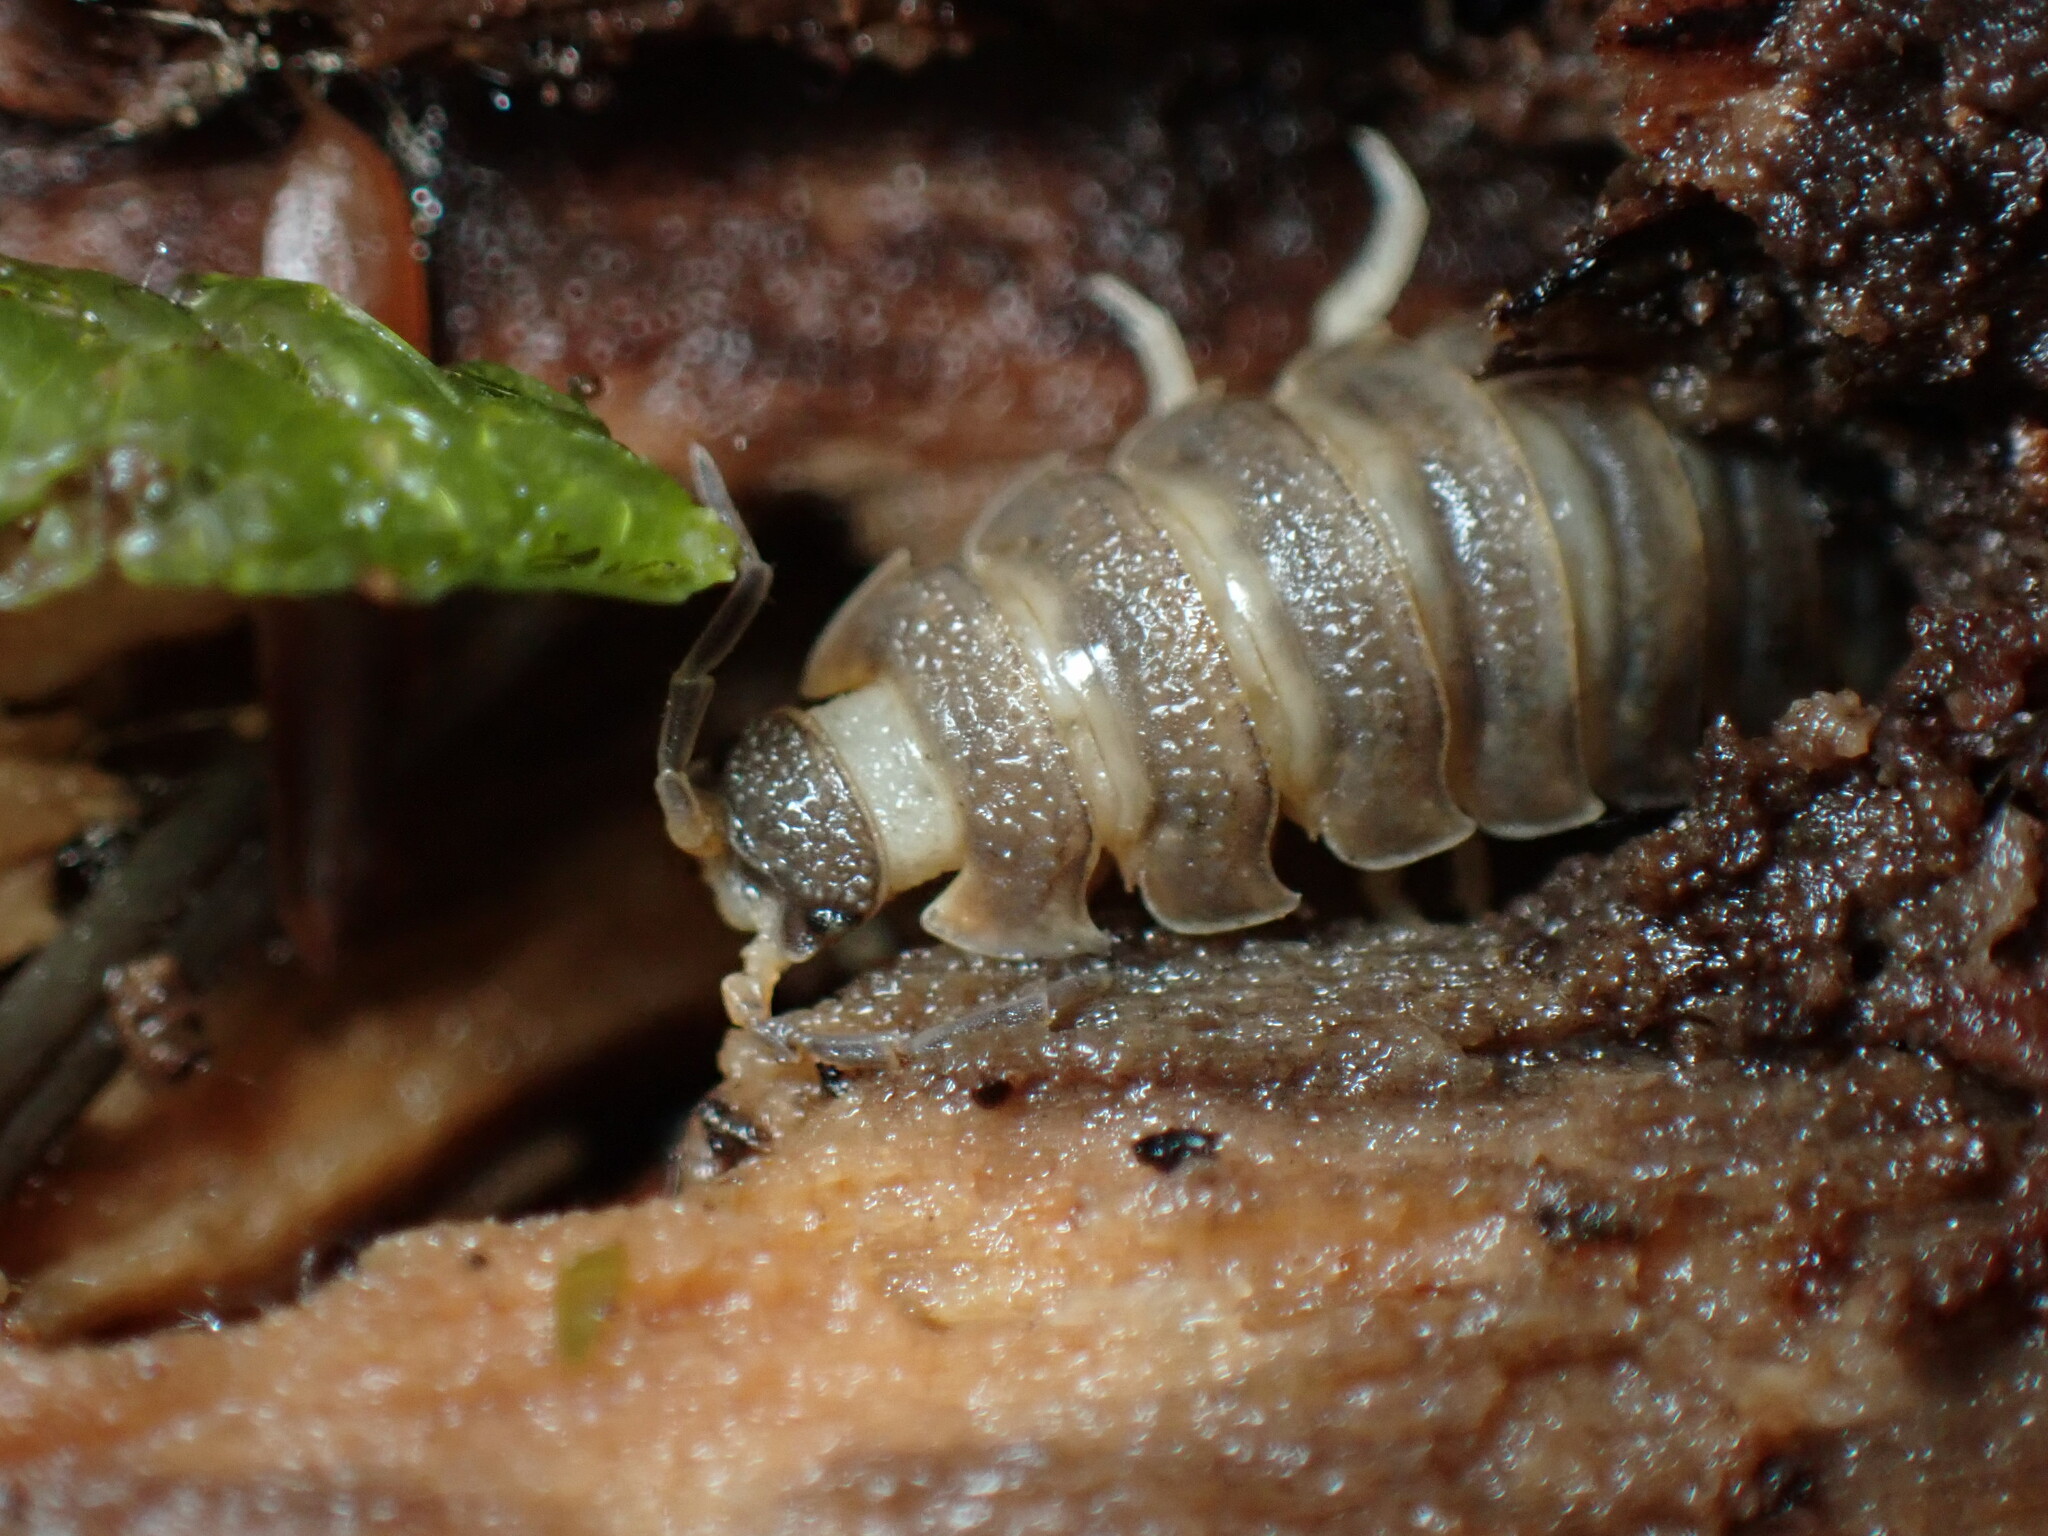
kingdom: Animalia
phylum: Arthropoda
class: Malacostraca
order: Isopoda
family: Porcellionidae
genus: Porcellio
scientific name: Porcellio scaber
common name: Common rough woodlouse
